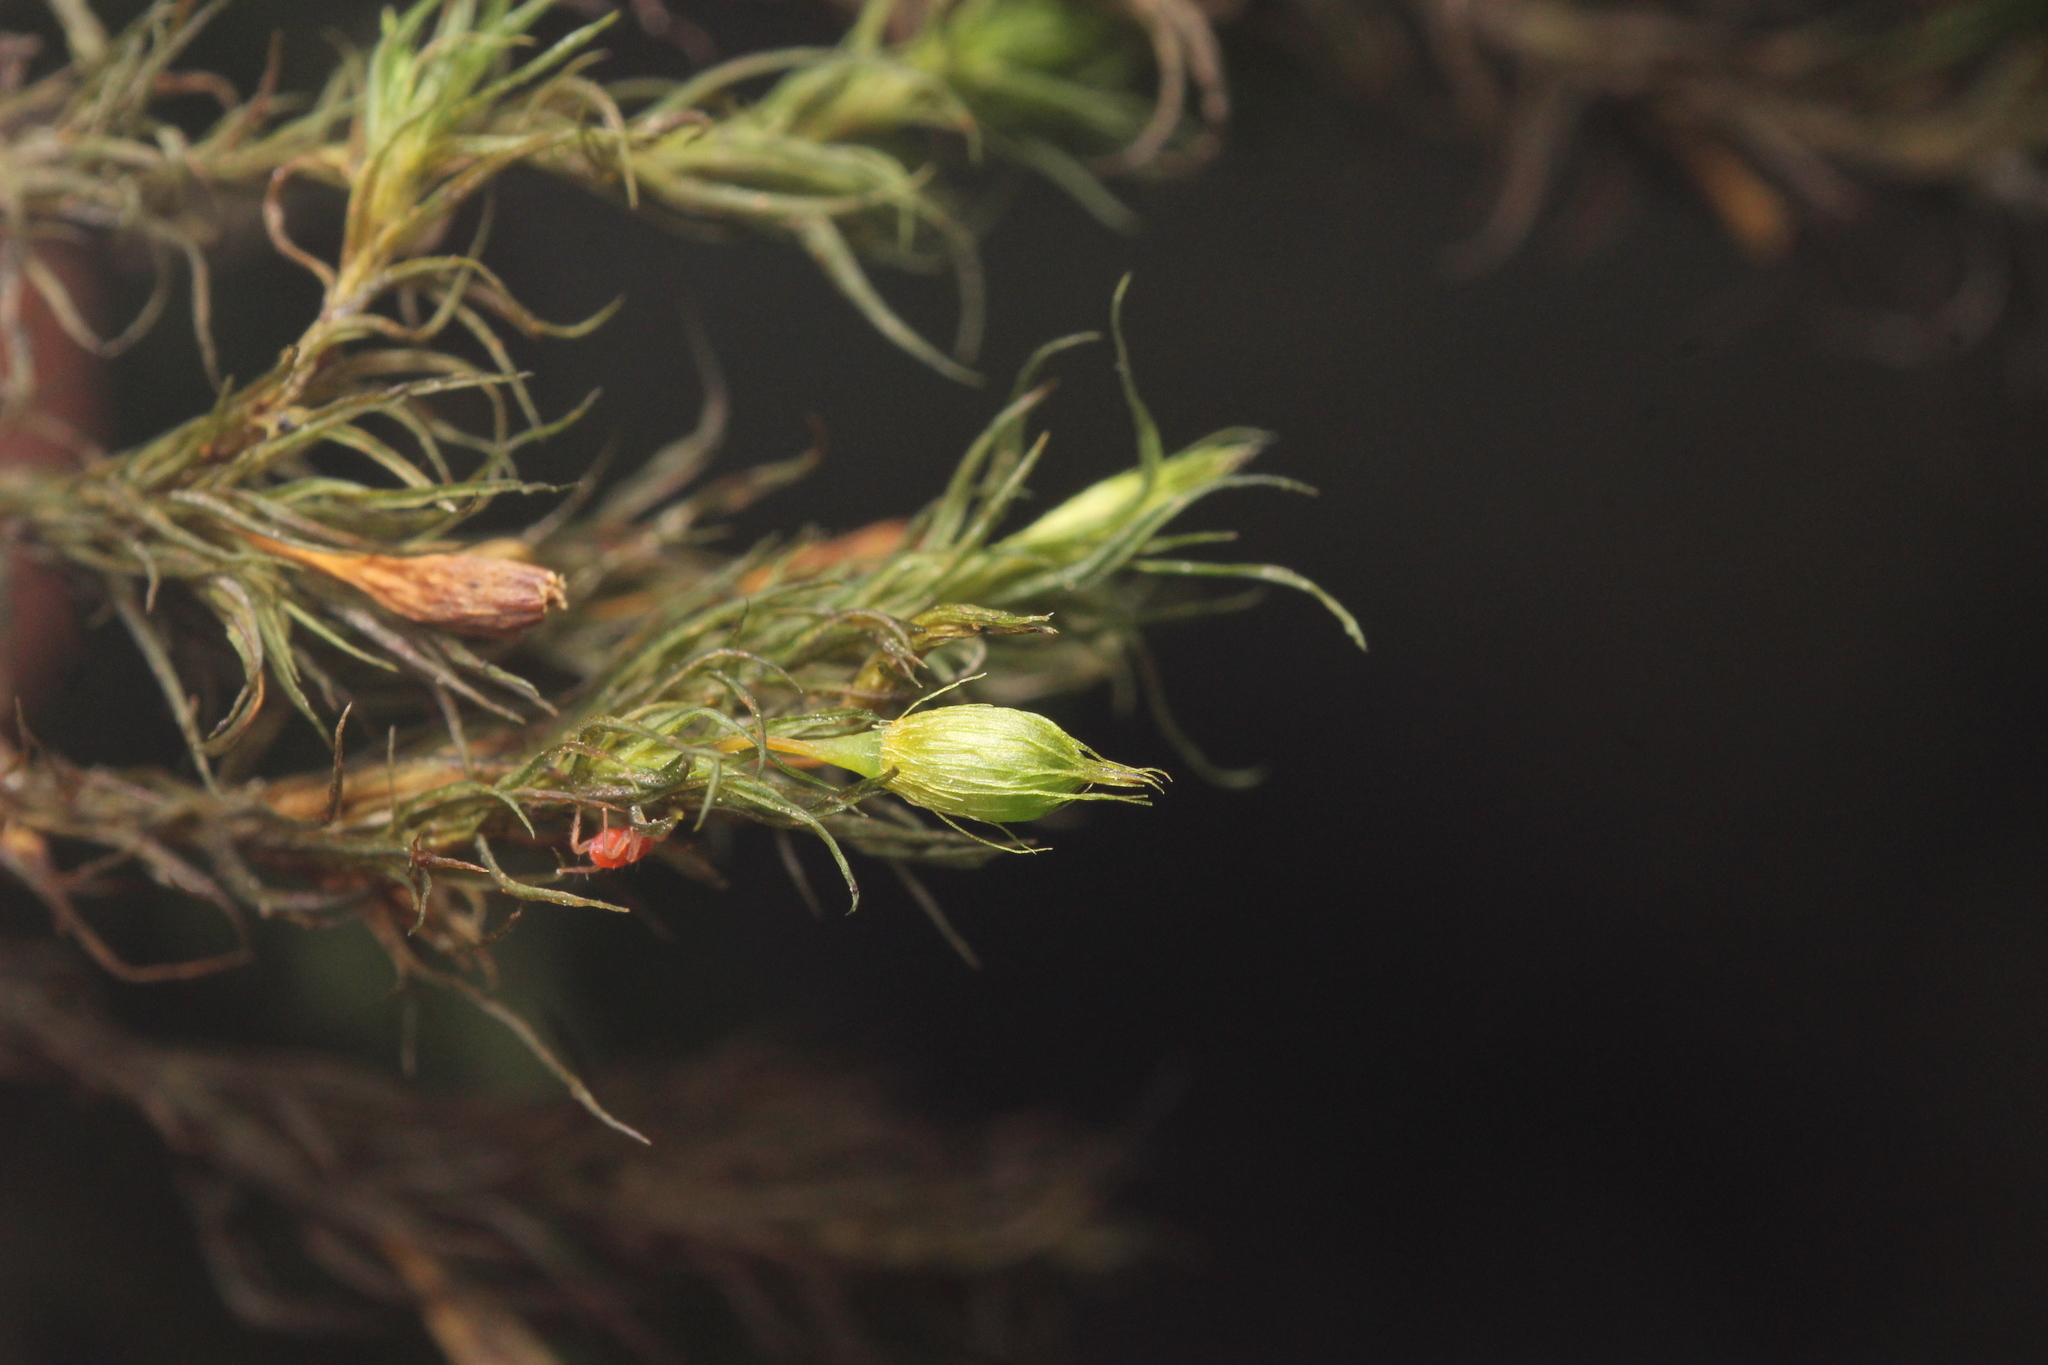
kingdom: Plantae
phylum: Bryophyta
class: Bryopsida
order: Orthotrichales
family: Orthotrichaceae
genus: Pulvigera
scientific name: Pulvigera papillosa
